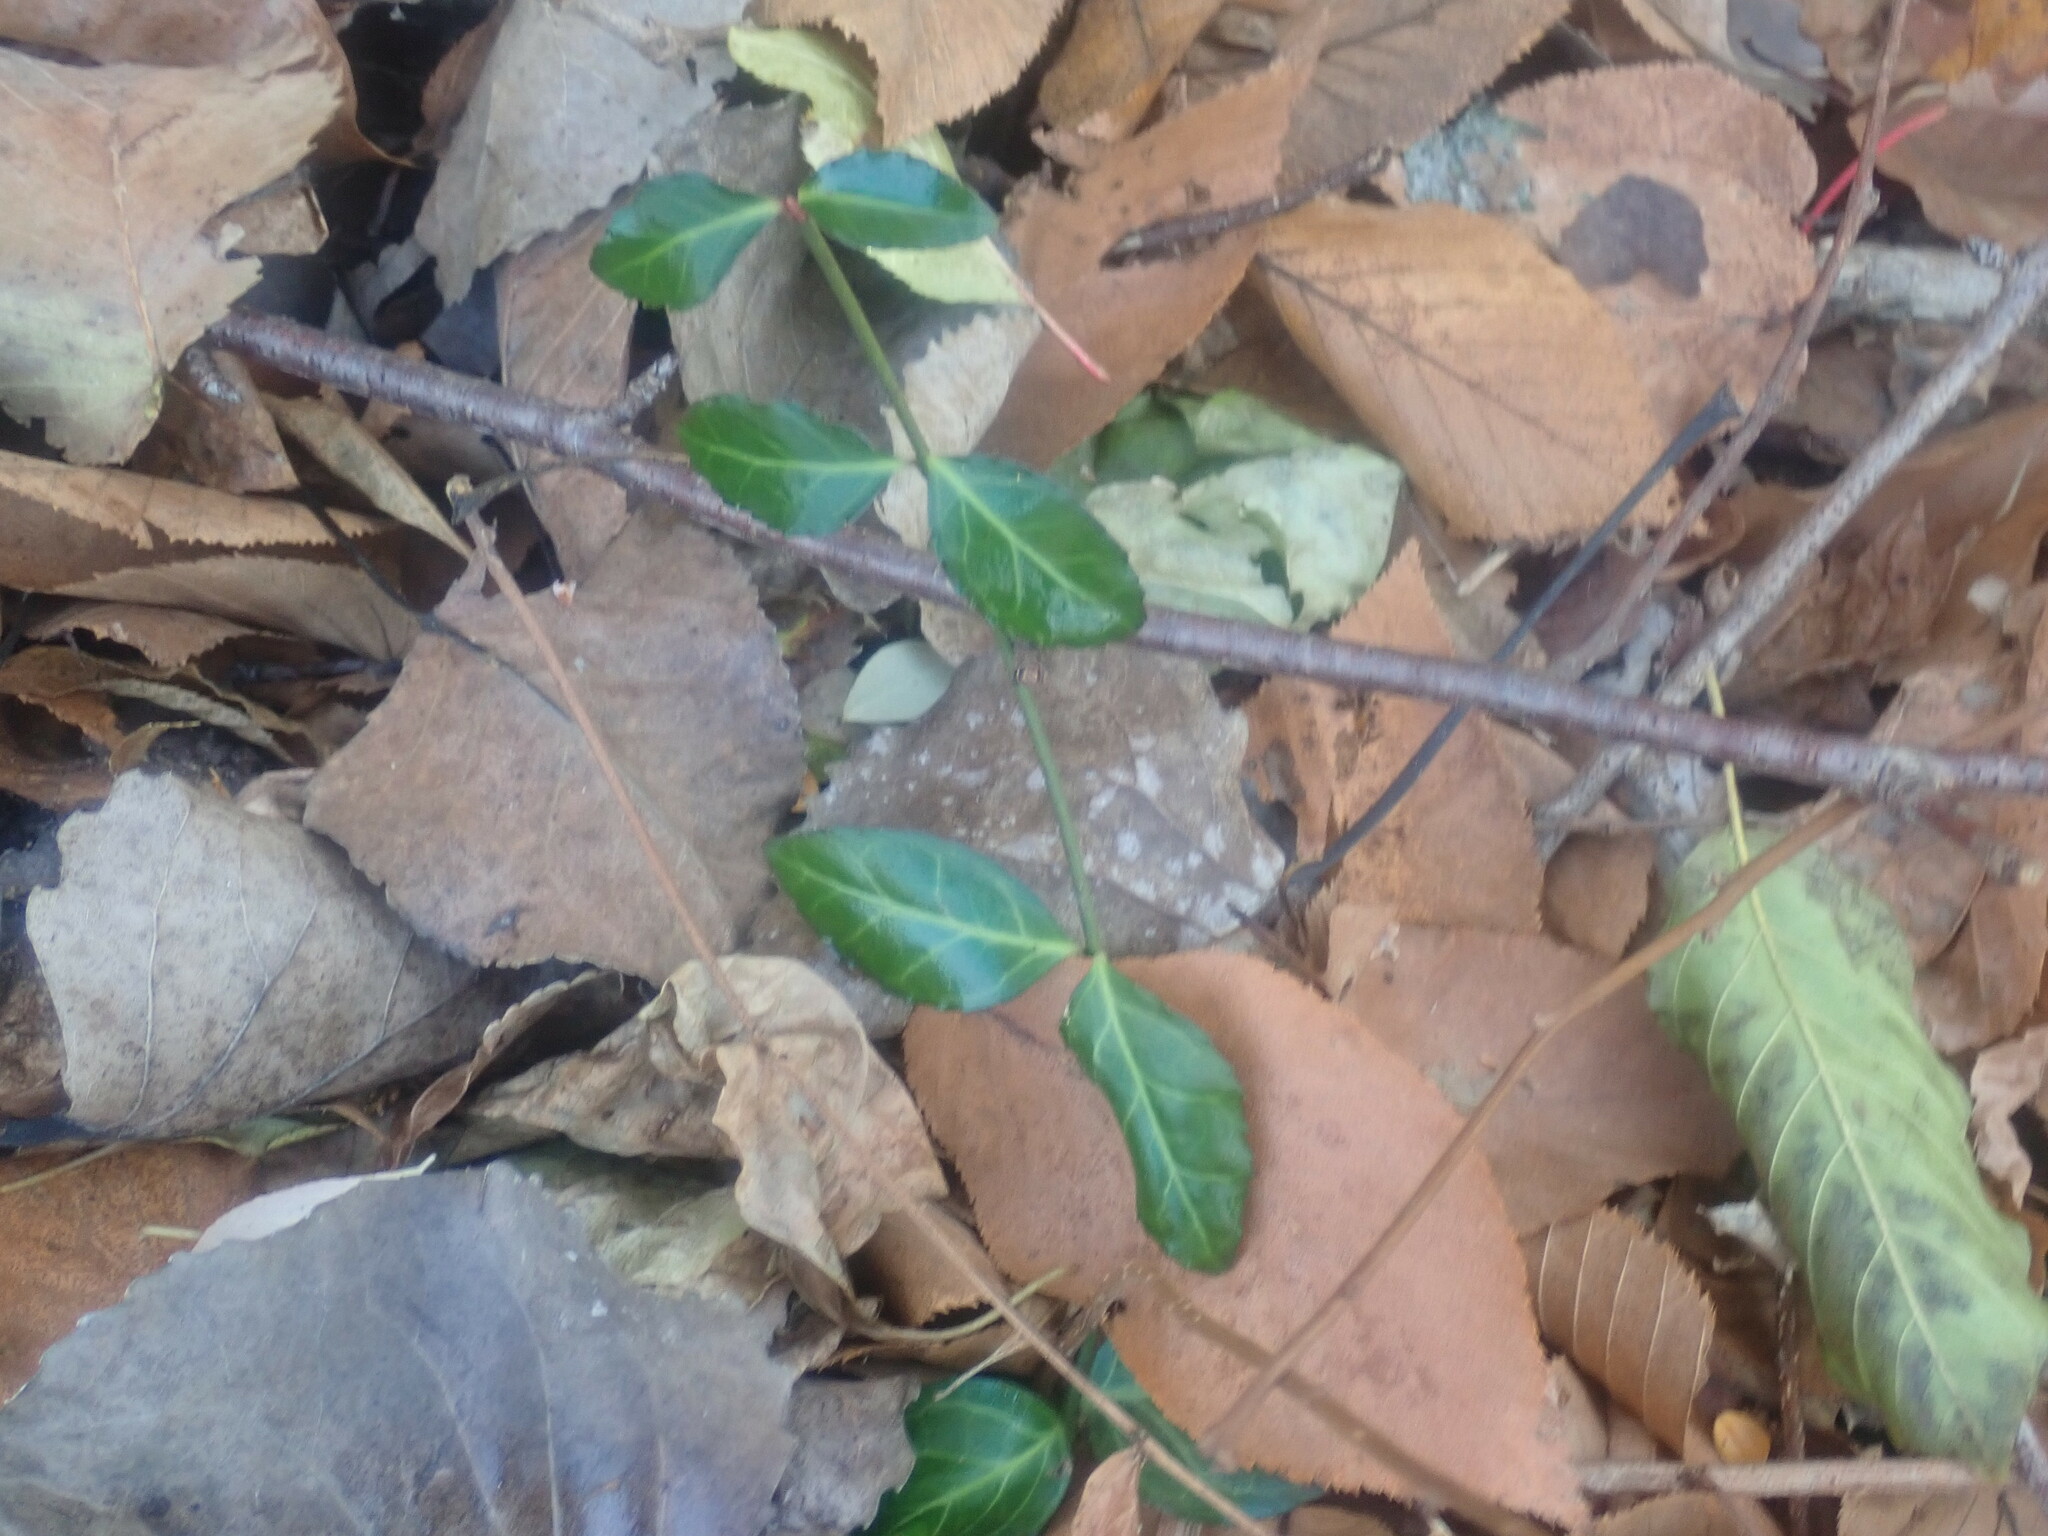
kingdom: Plantae
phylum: Tracheophyta
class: Magnoliopsida
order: Celastrales
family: Celastraceae
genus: Euonymus
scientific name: Euonymus fortunei
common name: Climbing euonymus
